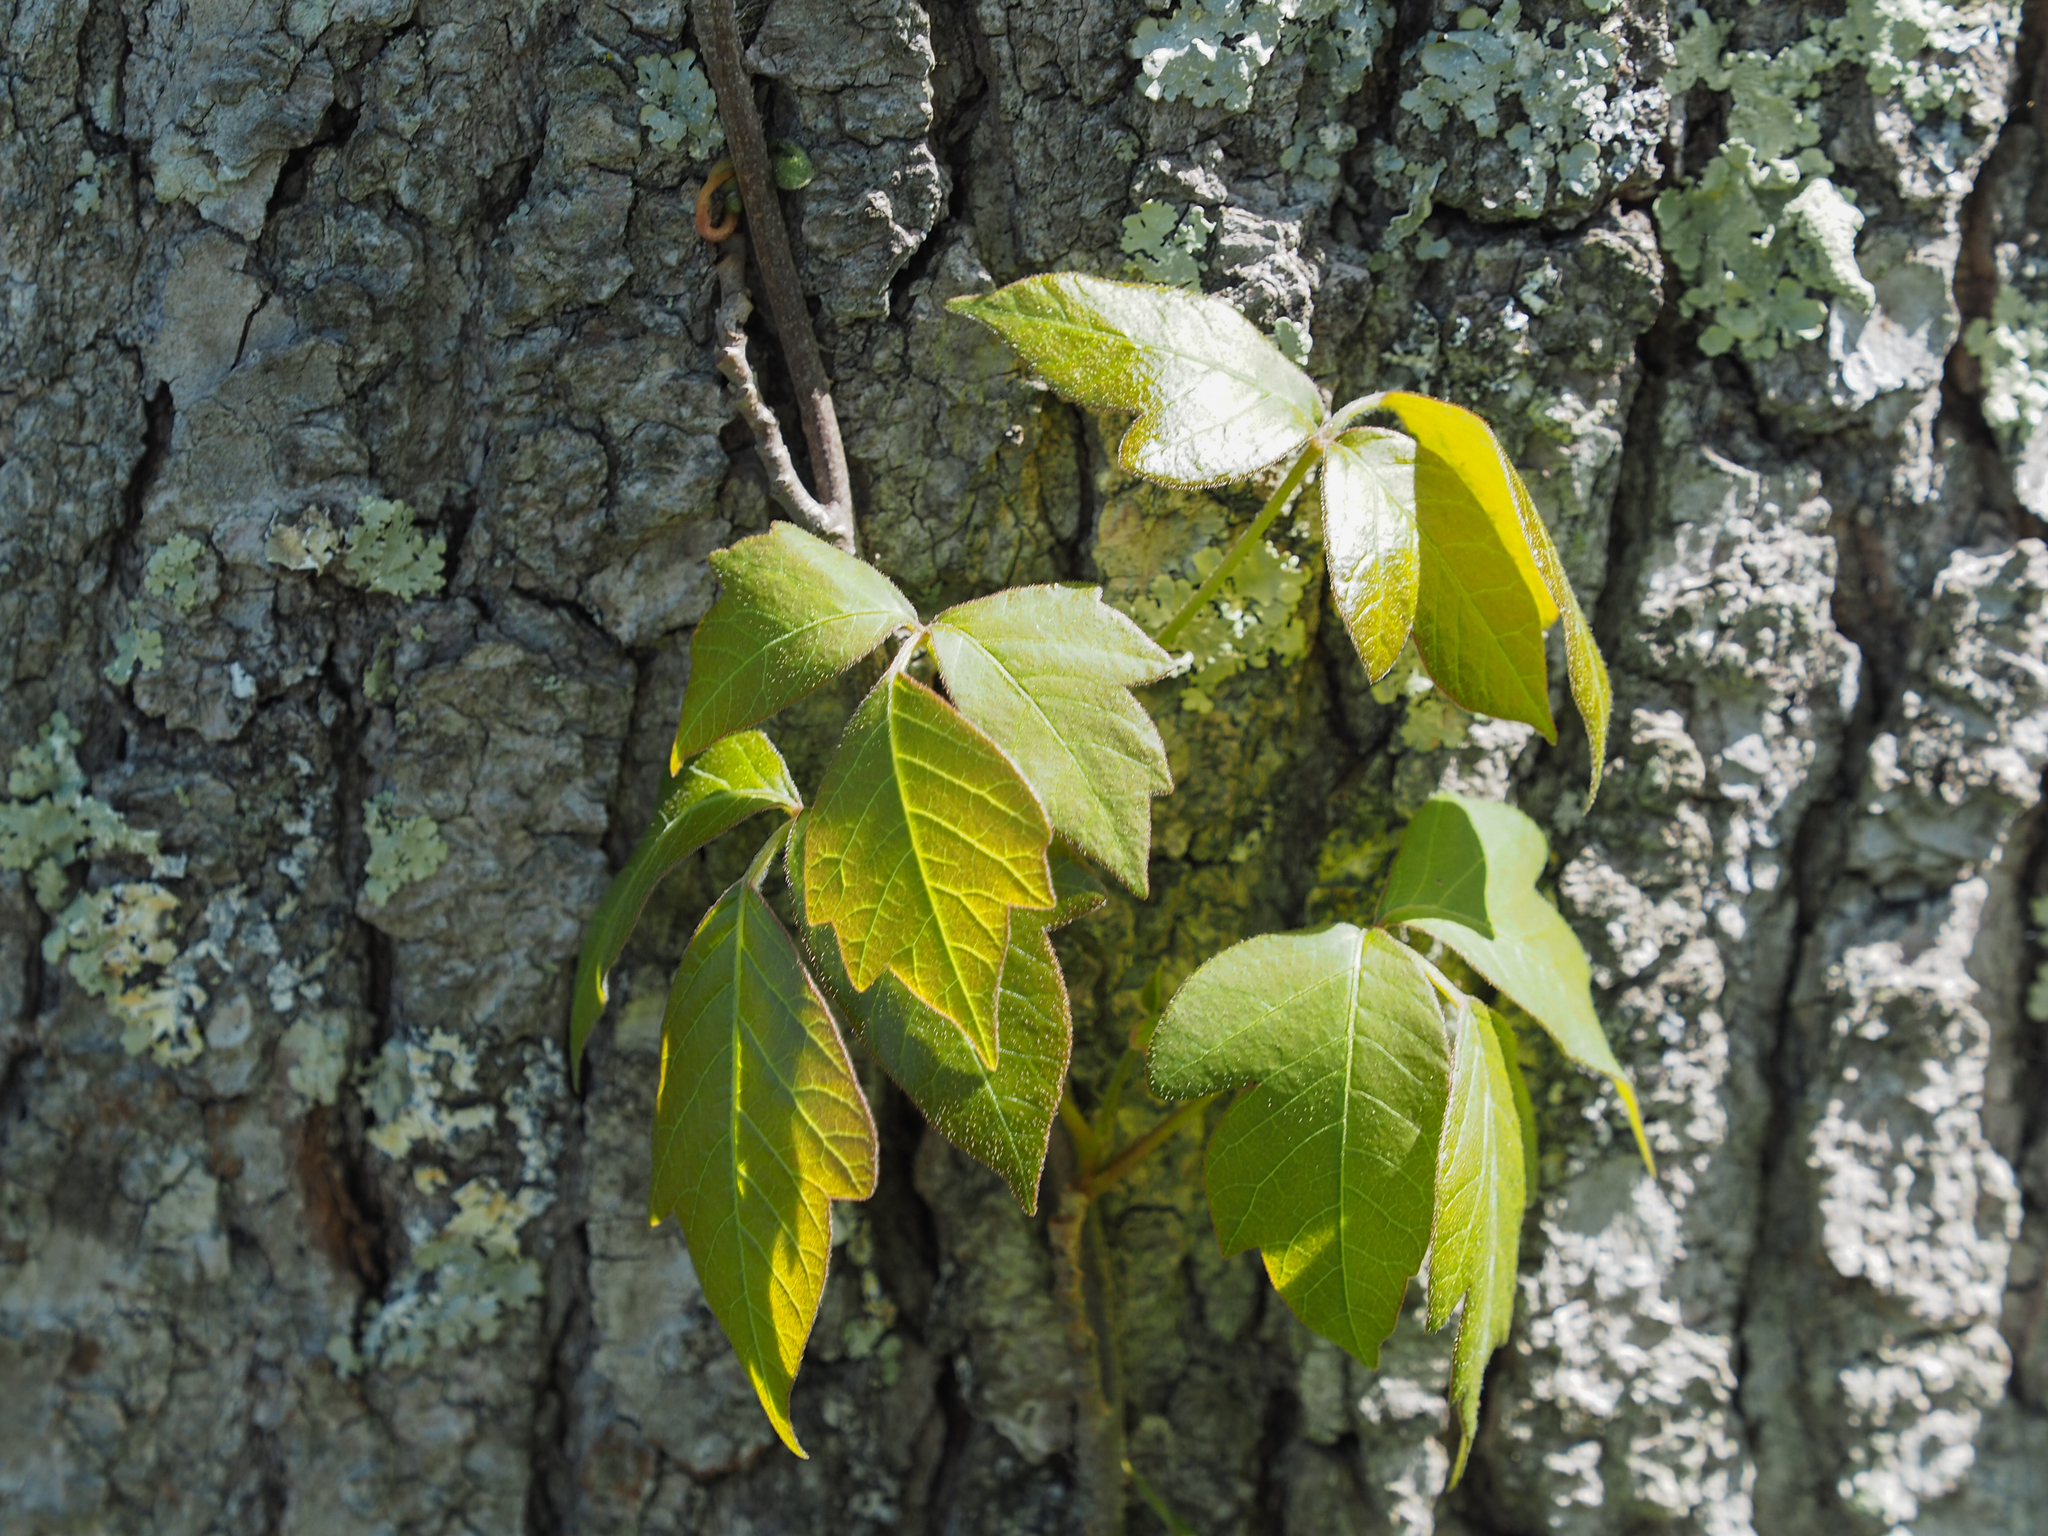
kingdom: Plantae
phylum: Tracheophyta
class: Magnoliopsida
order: Sapindales
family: Anacardiaceae
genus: Toxicodendron
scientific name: Toxicodendron radicans
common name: Poison ivy
